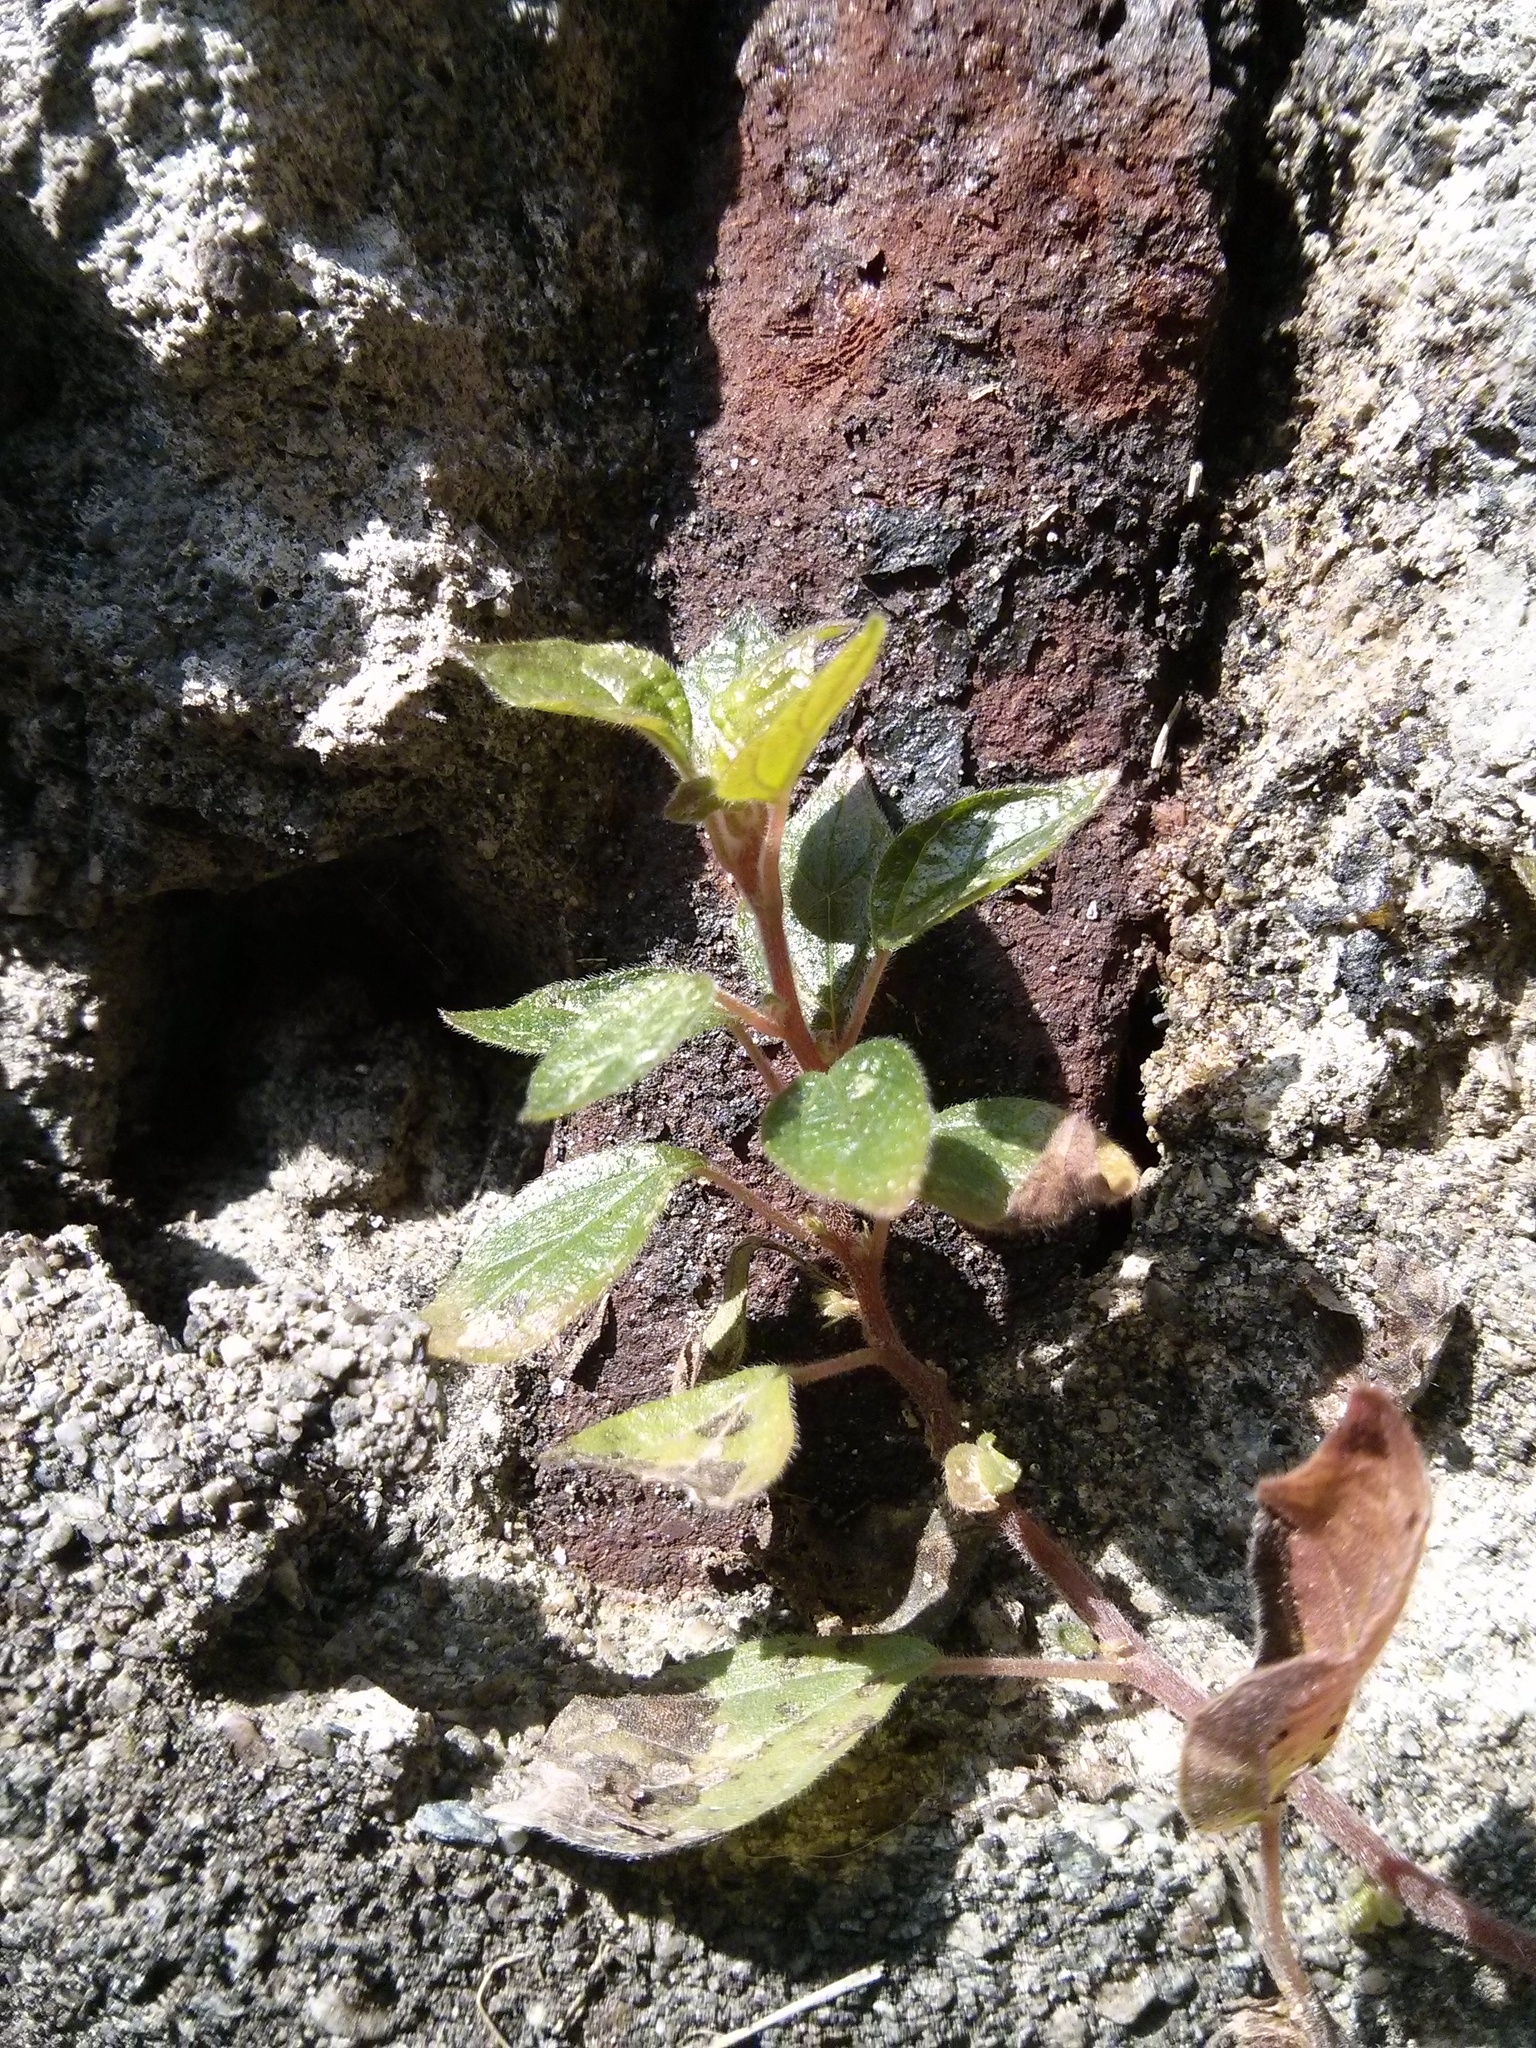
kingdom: Plantae
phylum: Tracheophyta
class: Magnoliopsida
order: Rosales
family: Urticaceae
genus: Parietaria
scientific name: Parietaria officinalis
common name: Eastern pellitory-of-the-wall
